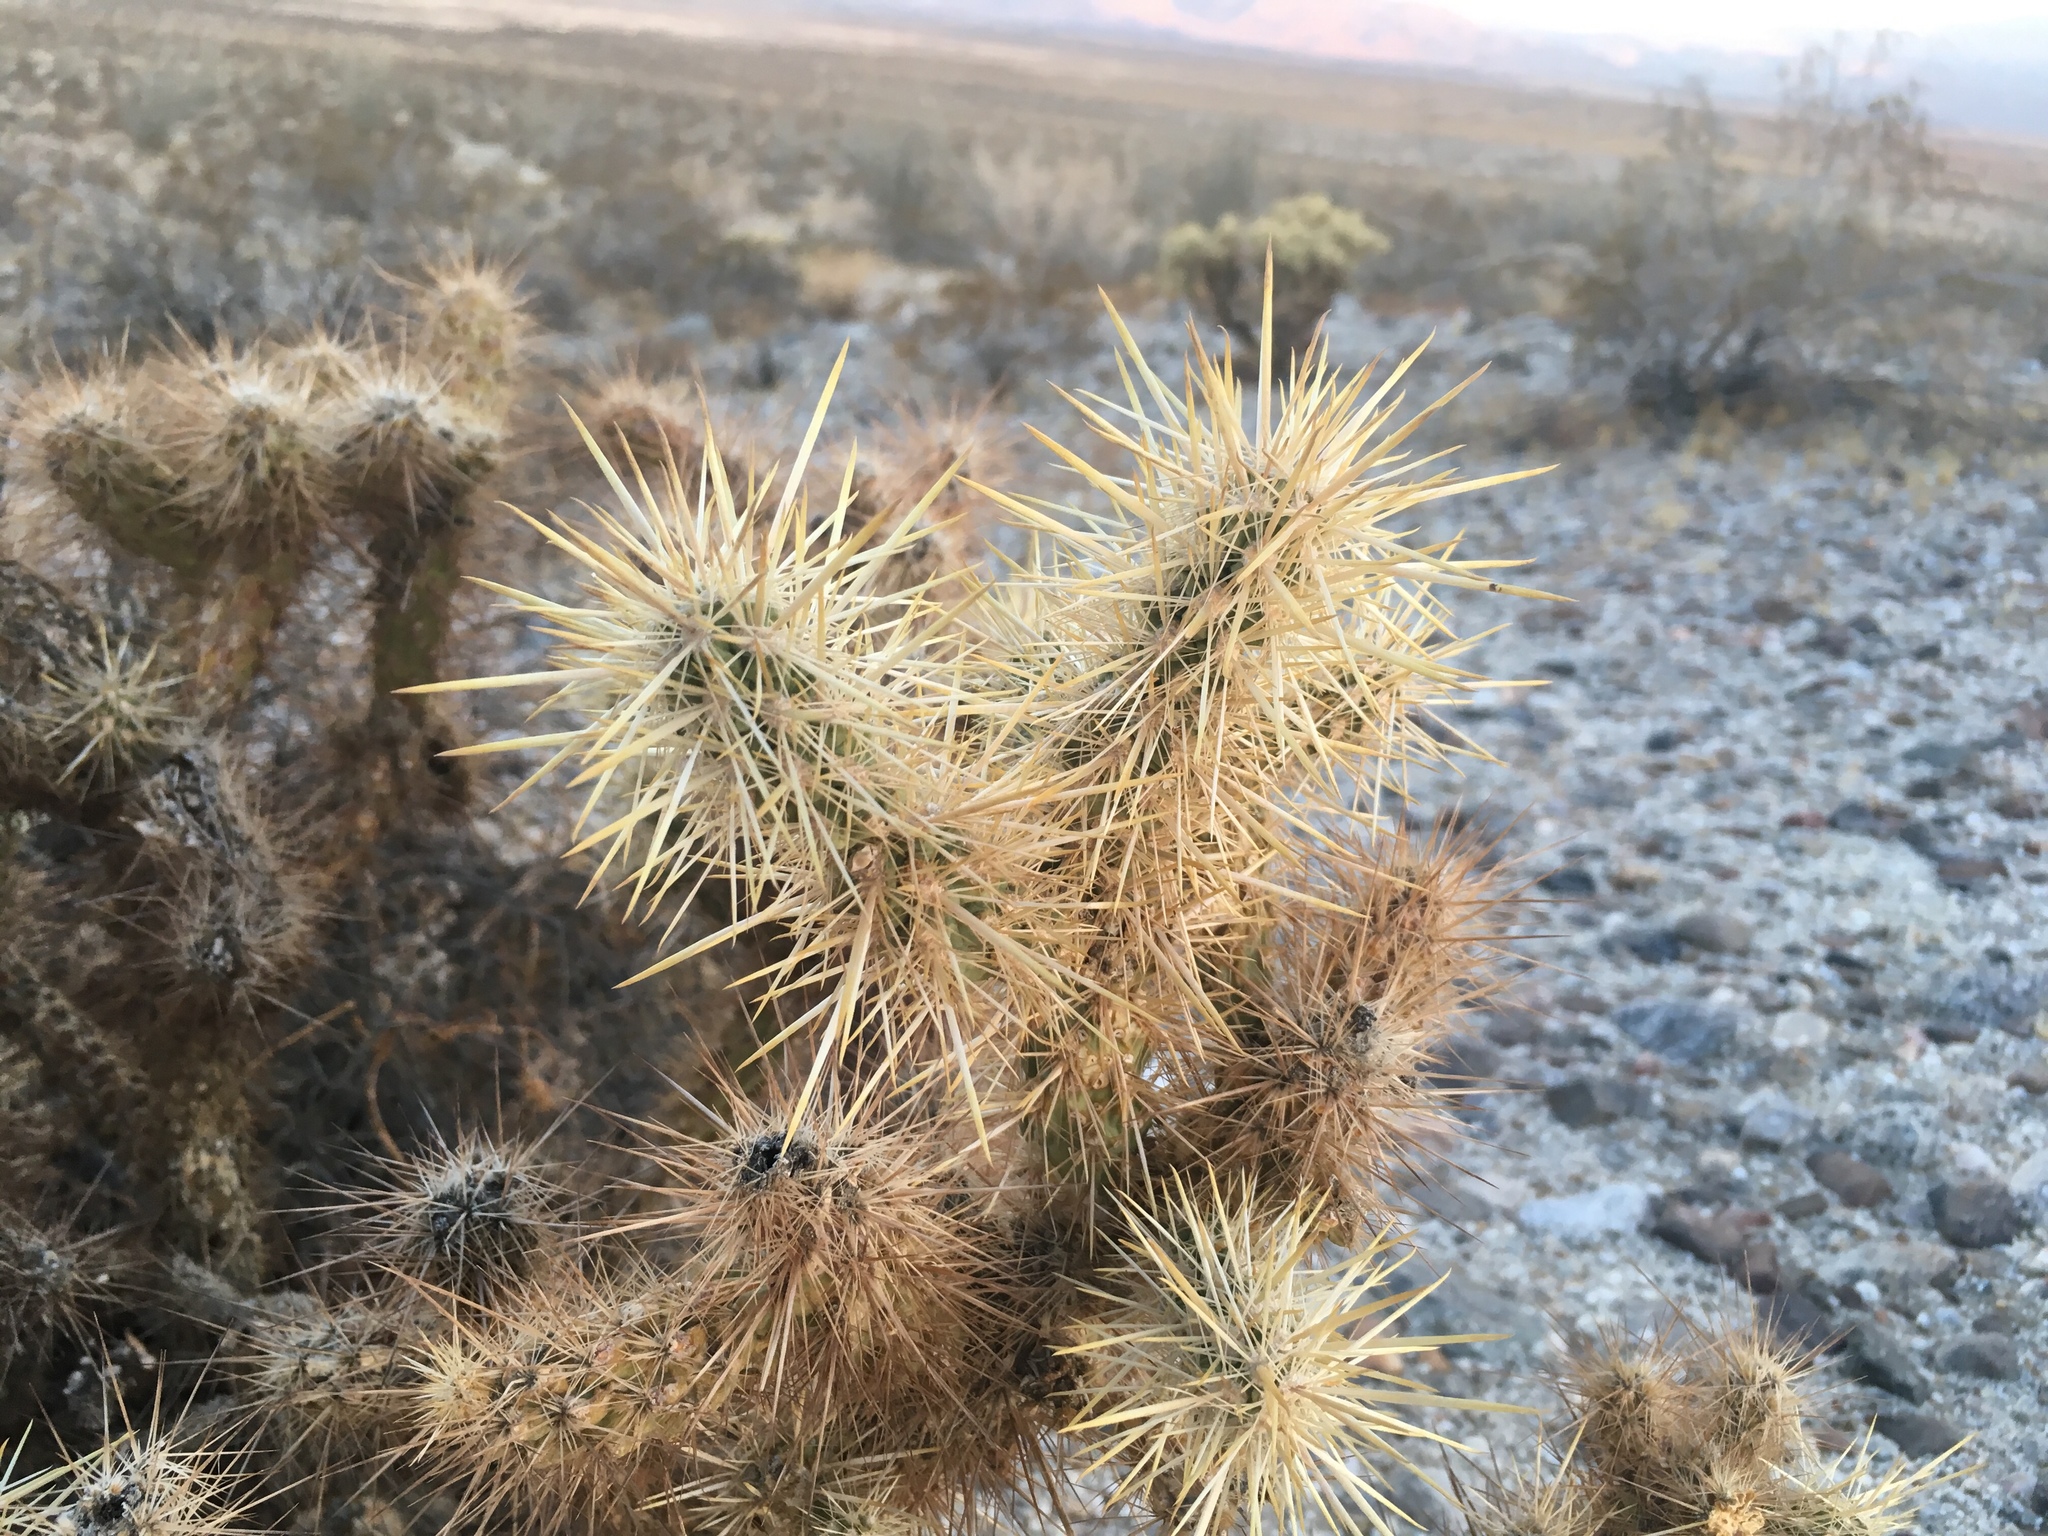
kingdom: Plantae
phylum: Tracheophyta
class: Magnoliopsida
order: Caryophyllales
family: Cactaceae
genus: Cylindropuntia
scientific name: Cylindropuntia echinocarpa
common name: Ground cholla
